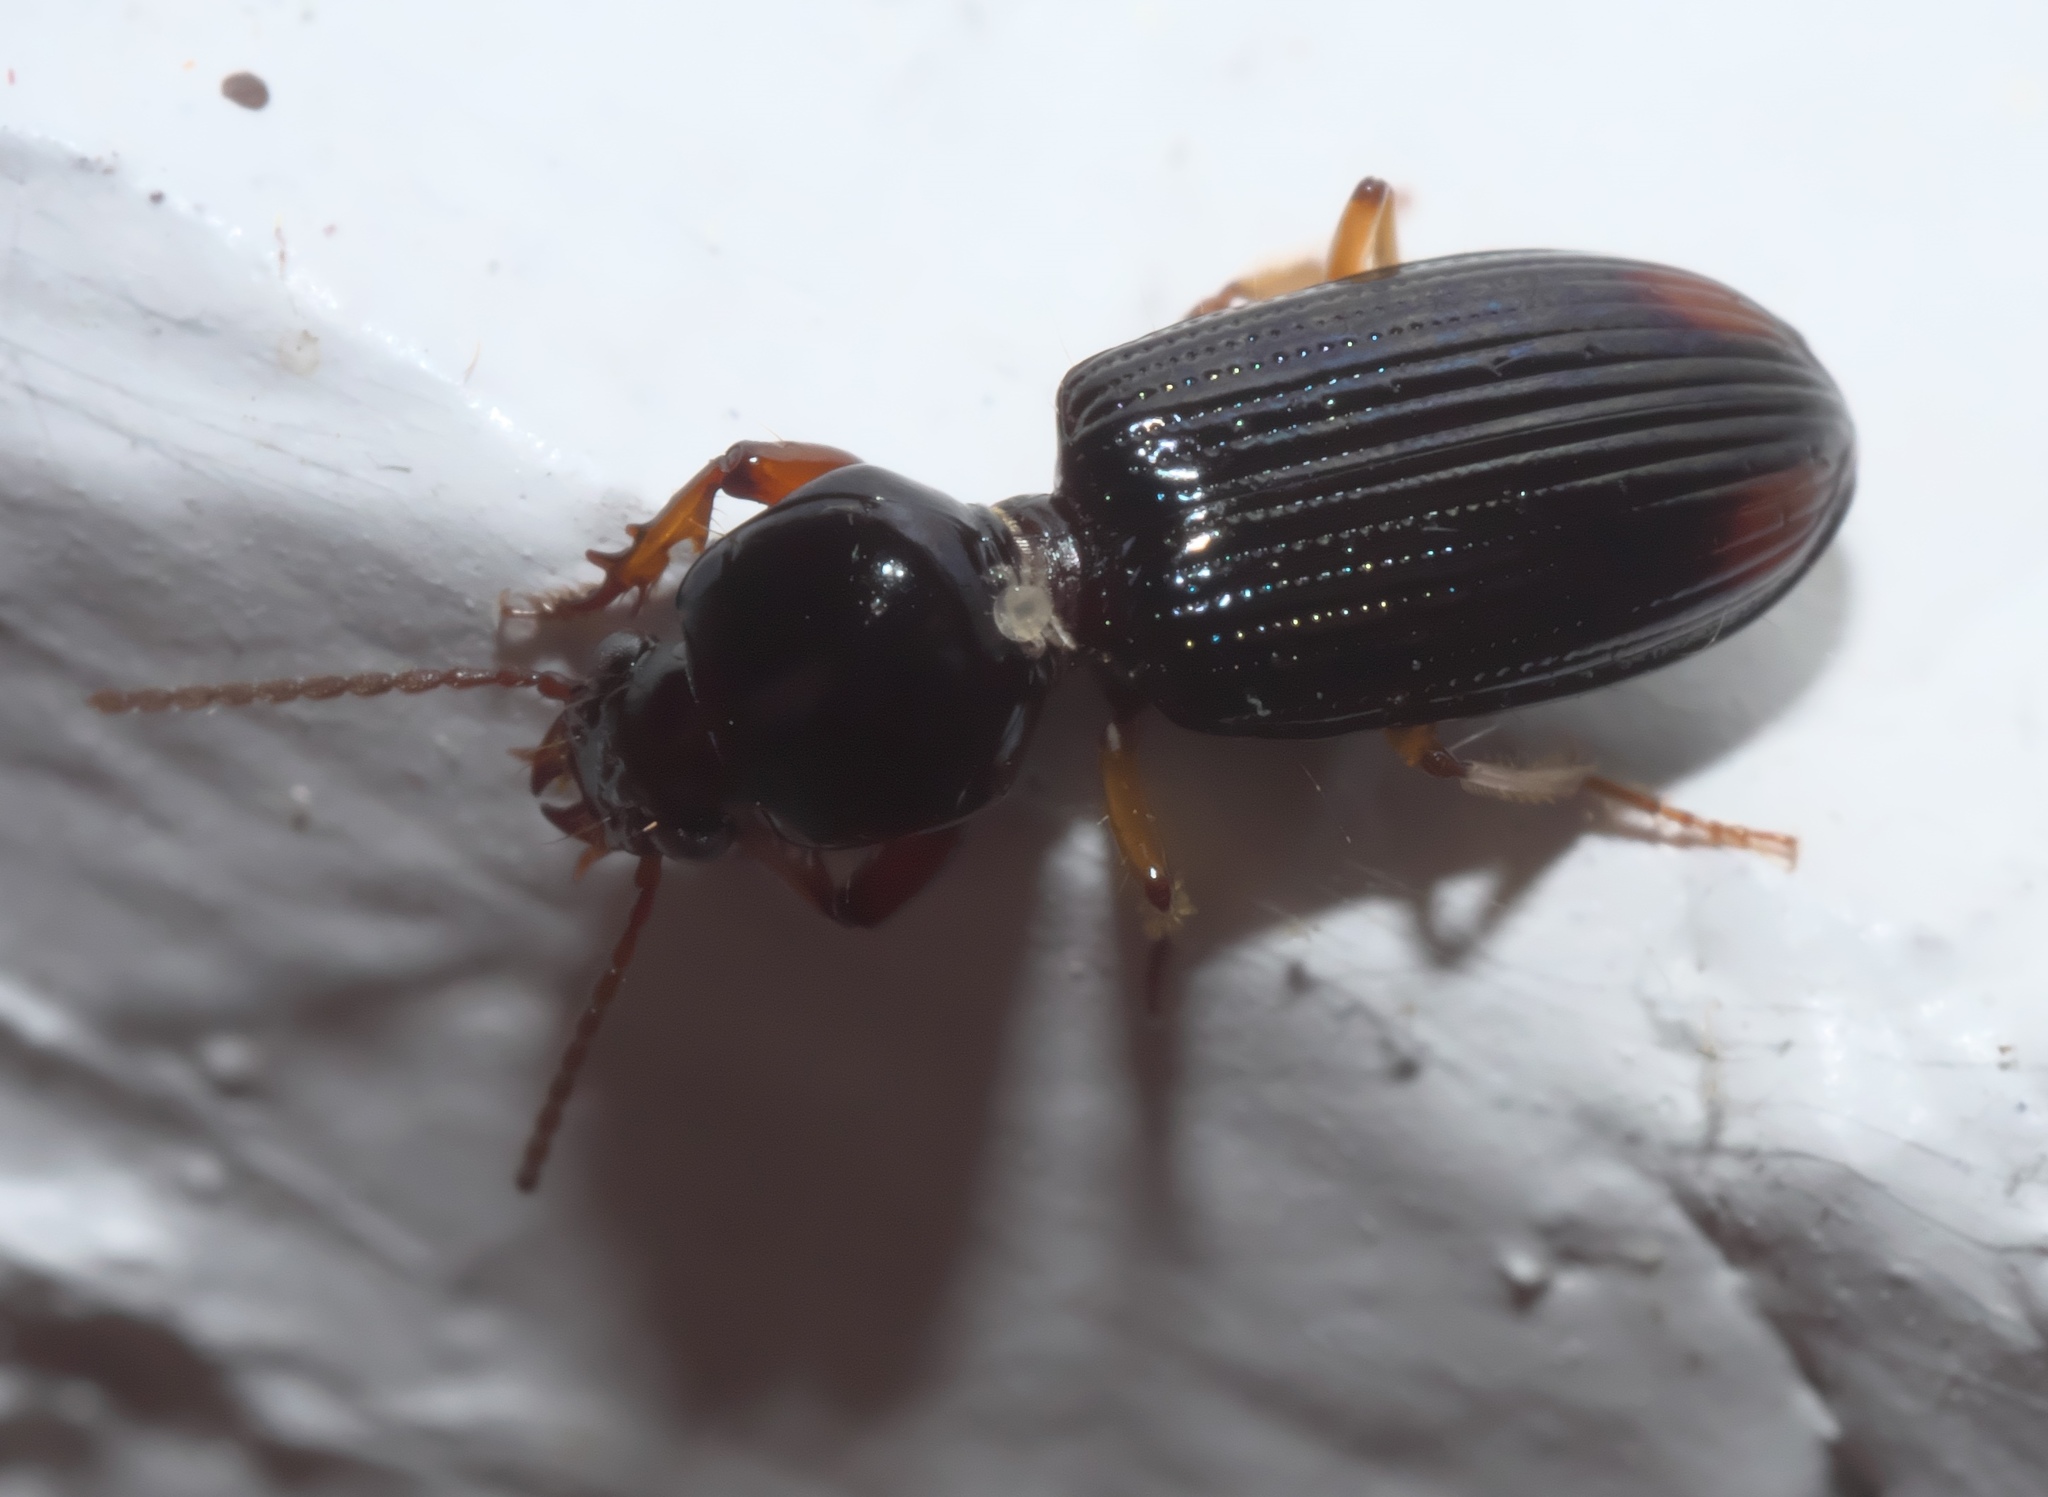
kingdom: Animalia
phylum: Arthropoda
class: Insecta
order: Coleoptera
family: Carabidae
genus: Aspidoglossa
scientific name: Aspidoglossa subangulata
